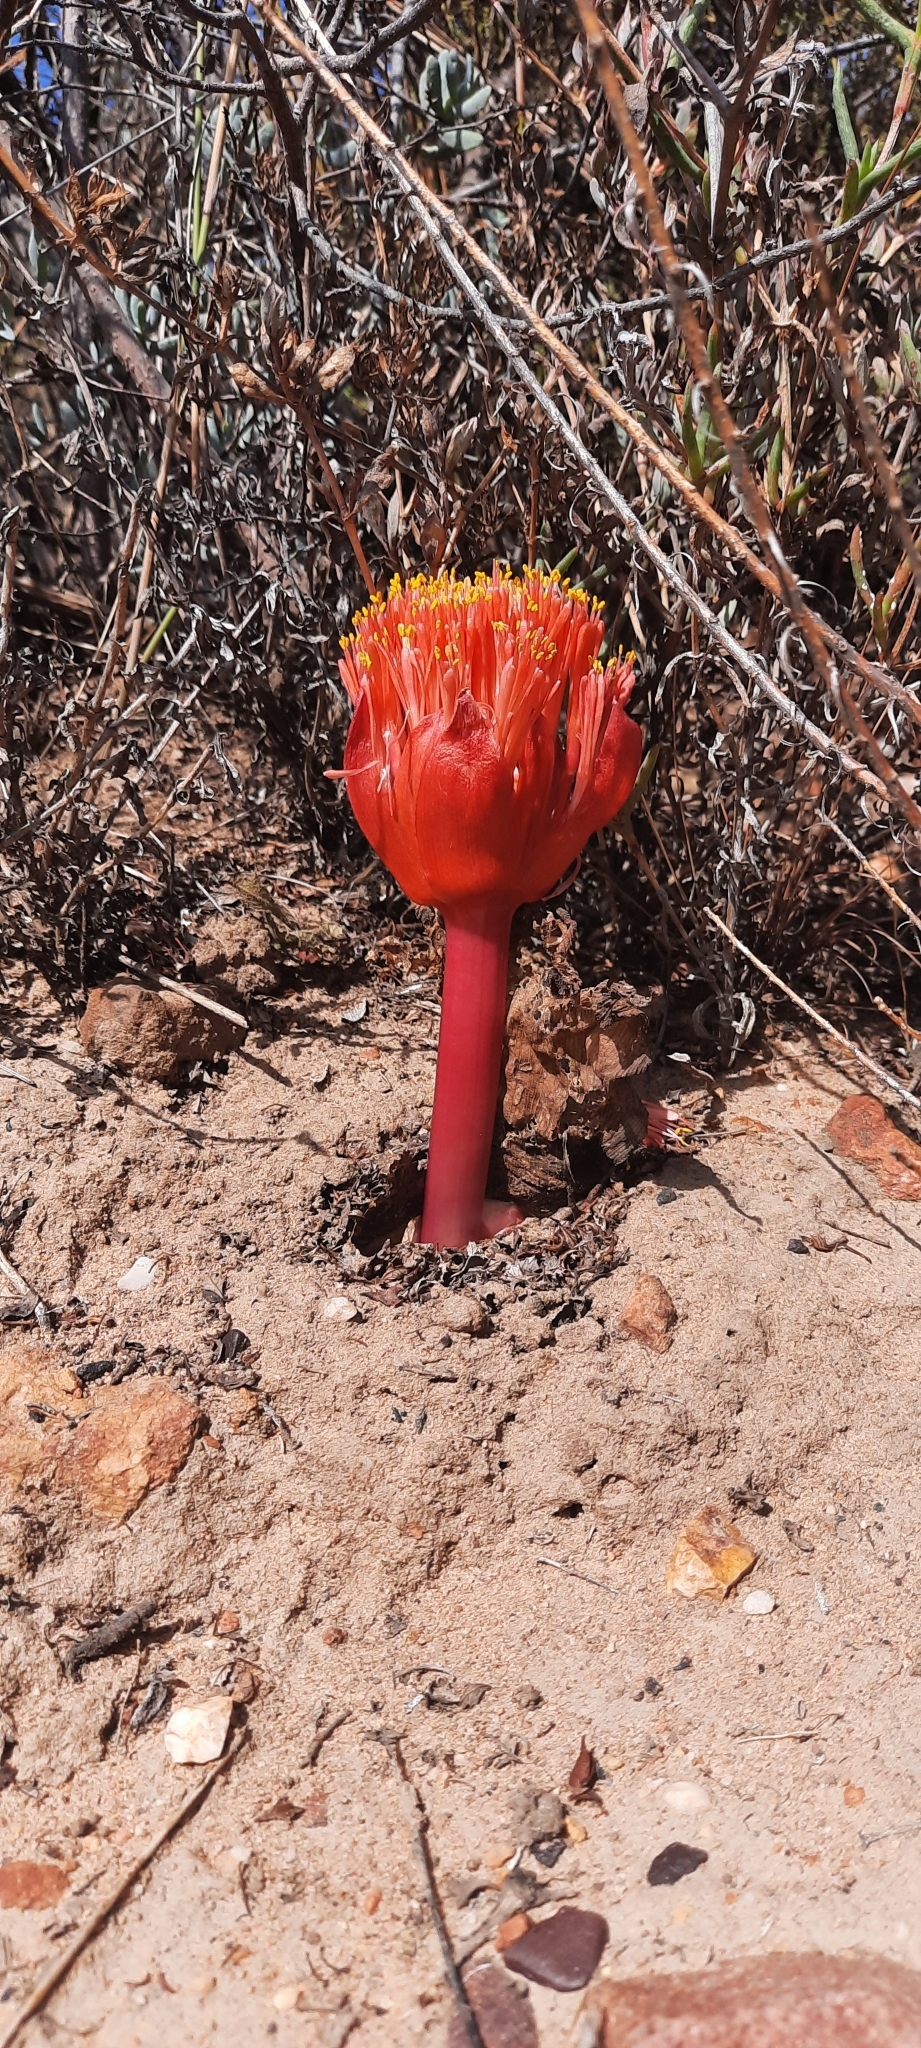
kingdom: Plantae
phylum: Tracheophyta
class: Liliopsida
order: Asparagales
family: Amaryllidaceae
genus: Haemanthus
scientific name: Haemanthus sanguineus
